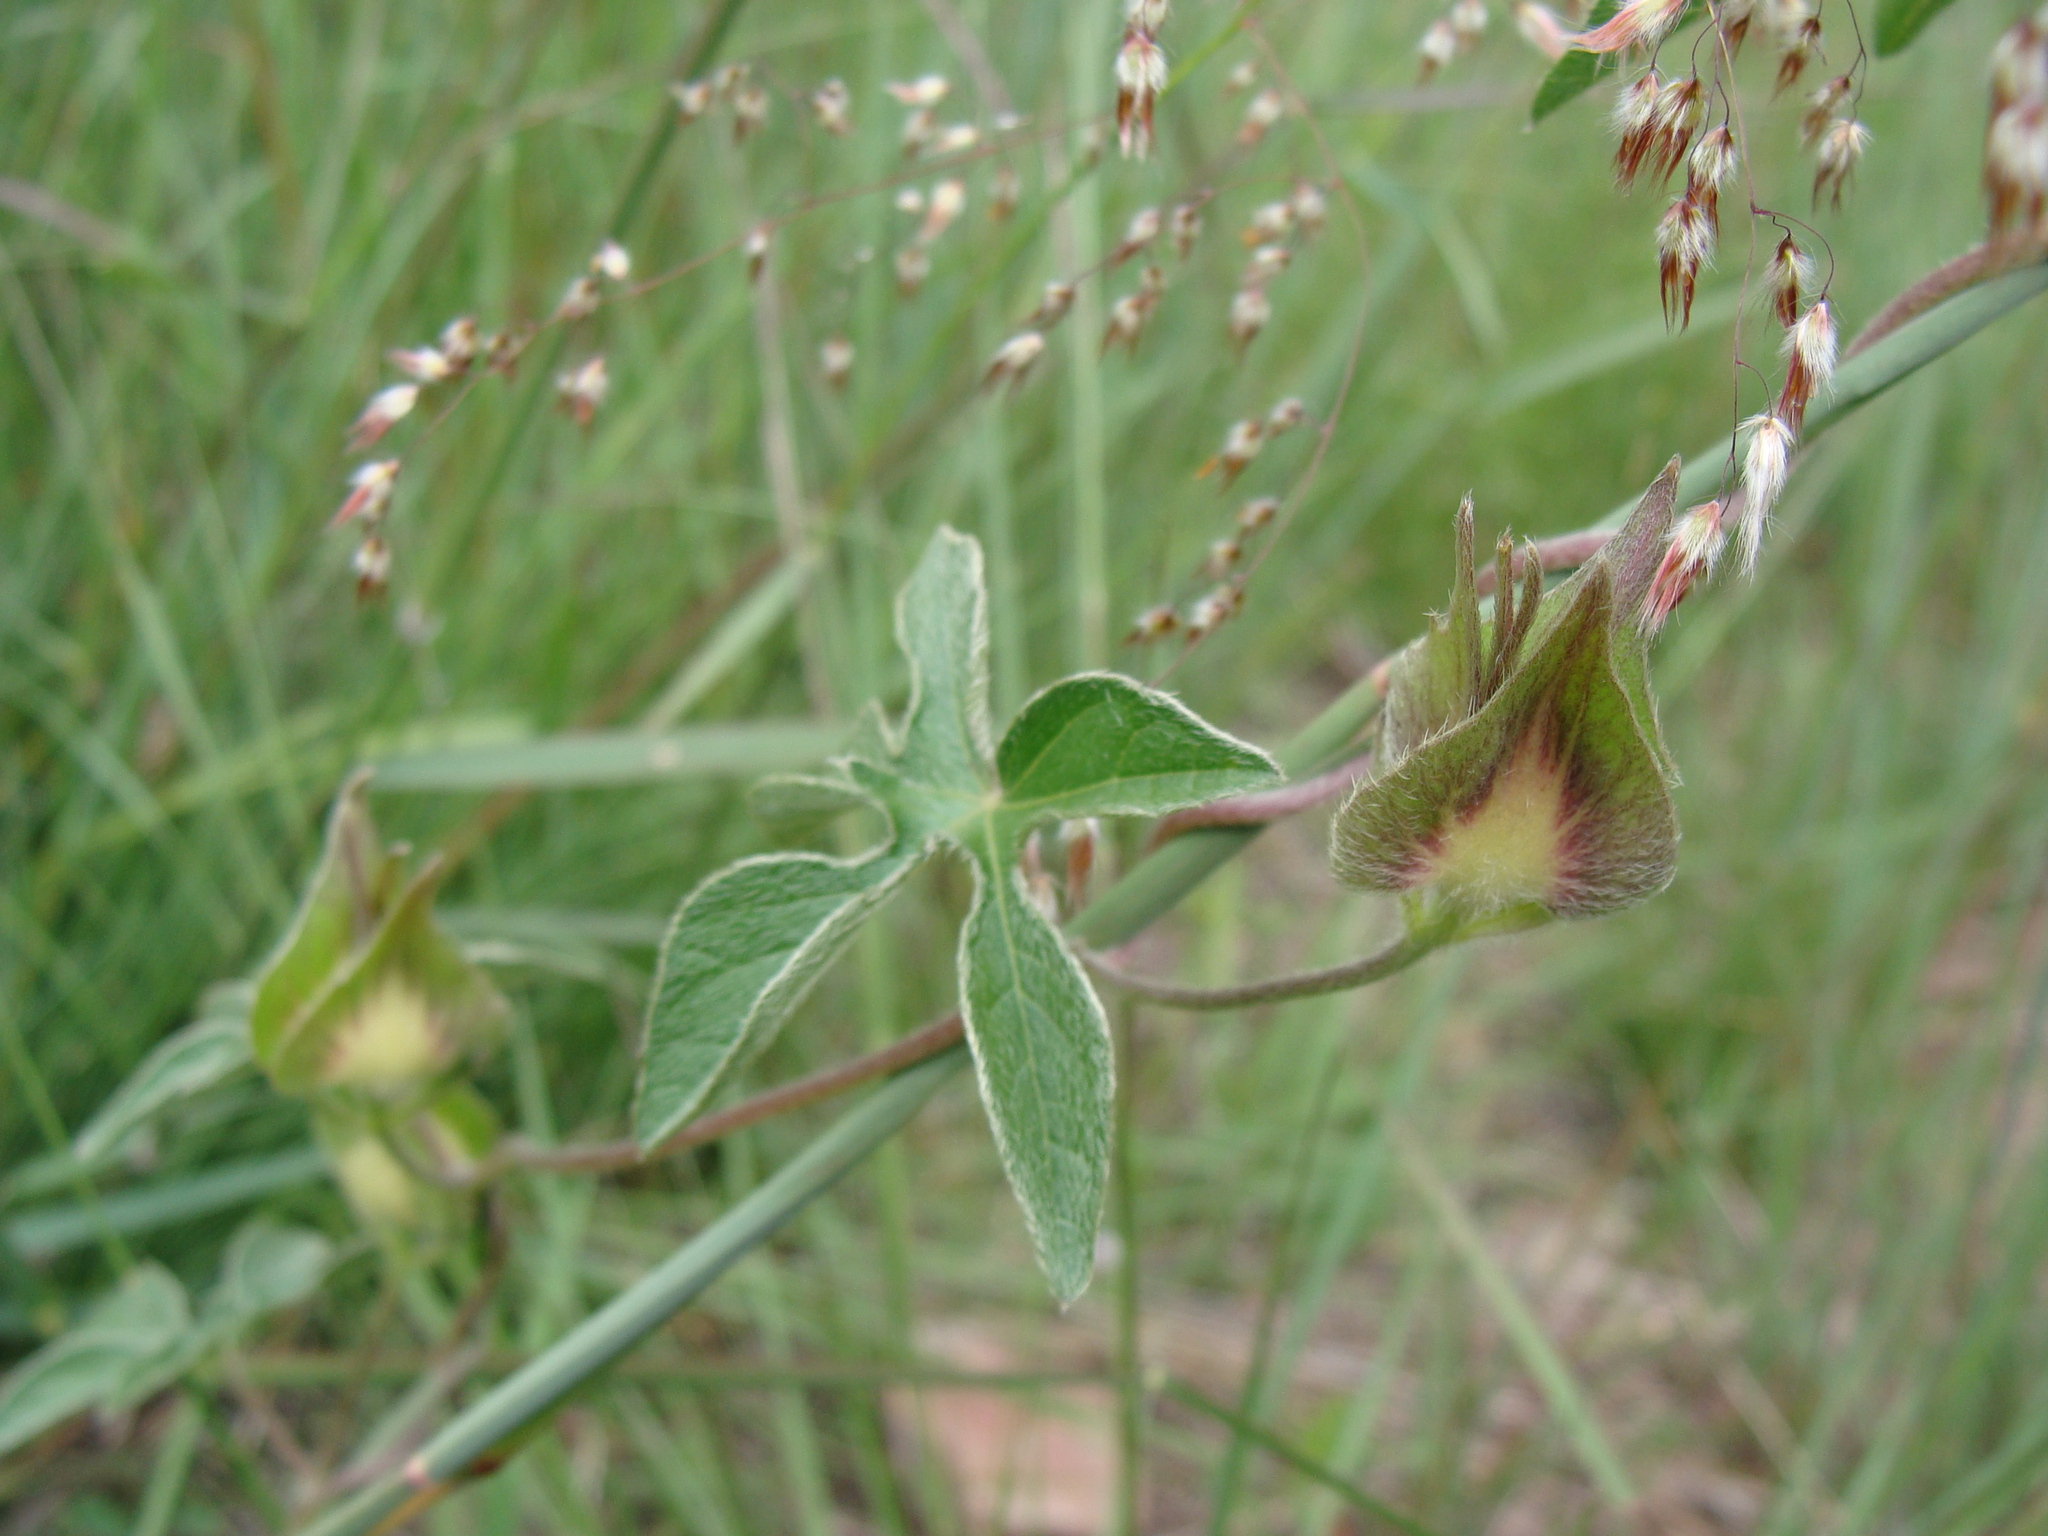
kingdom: Plantae
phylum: Tracheophyta
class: Magnoliopsida
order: Solanales
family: Convolvulaceae
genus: Ipomoea
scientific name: Ipomoea pubescens
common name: Silky morning-glory
